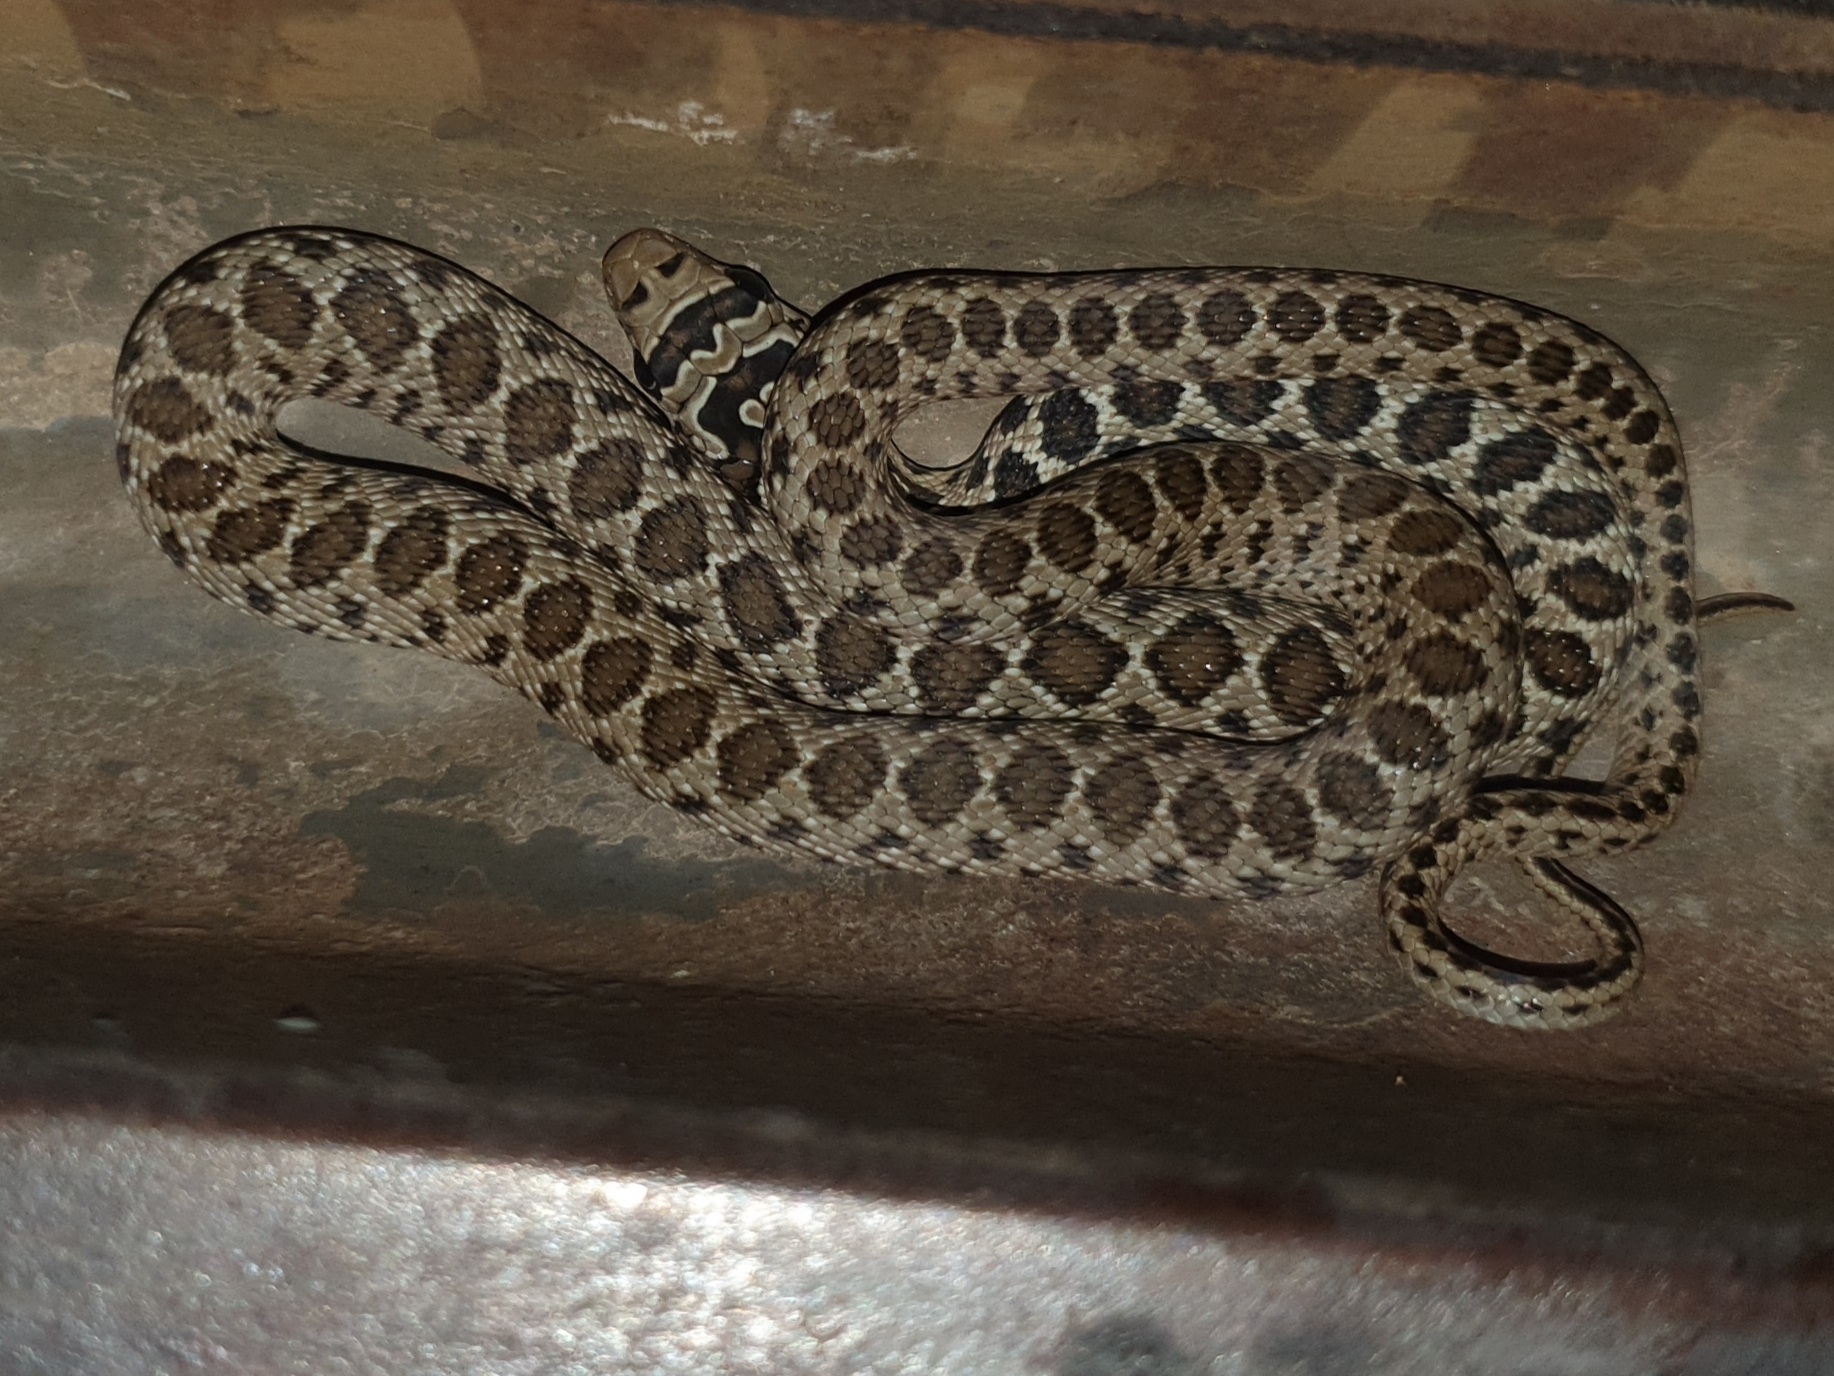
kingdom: Animalia
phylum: Chordata
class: Squamata
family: Colubridae
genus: Hemorrhois
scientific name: Hemorrhois hippocrepis
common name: Horseshoe whip snake
